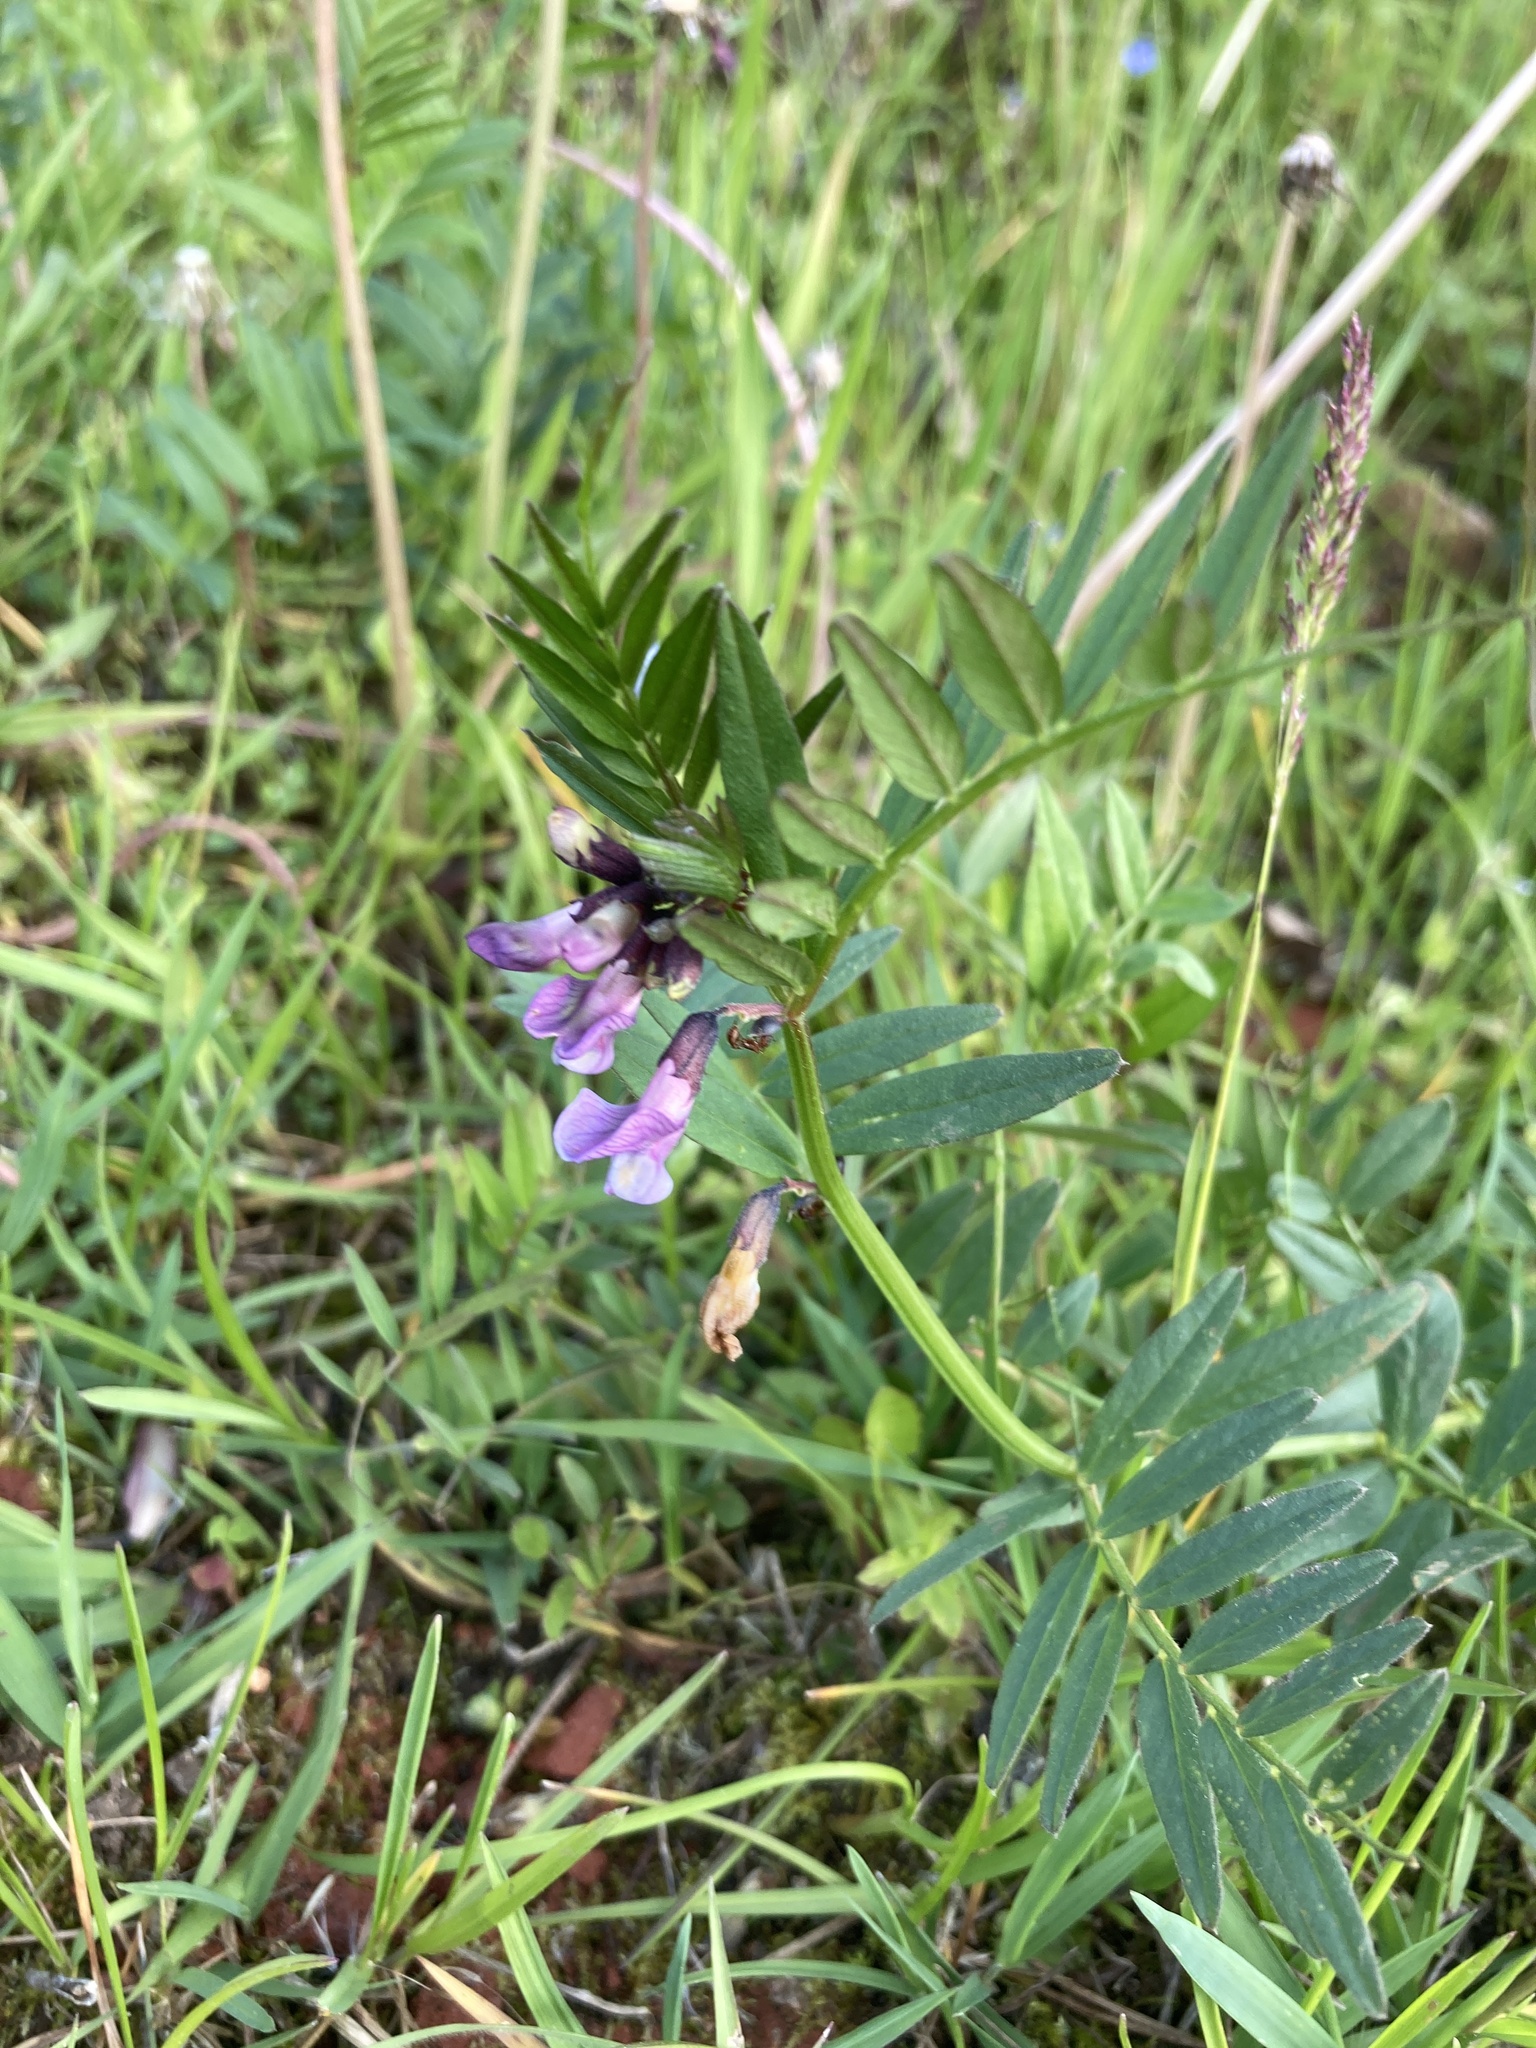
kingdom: Plantae
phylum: Tracheophyta
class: Magnoliopsida
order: Fabales
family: Fabaceae
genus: Vicia
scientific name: Vicia sepium
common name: Bush vetch
